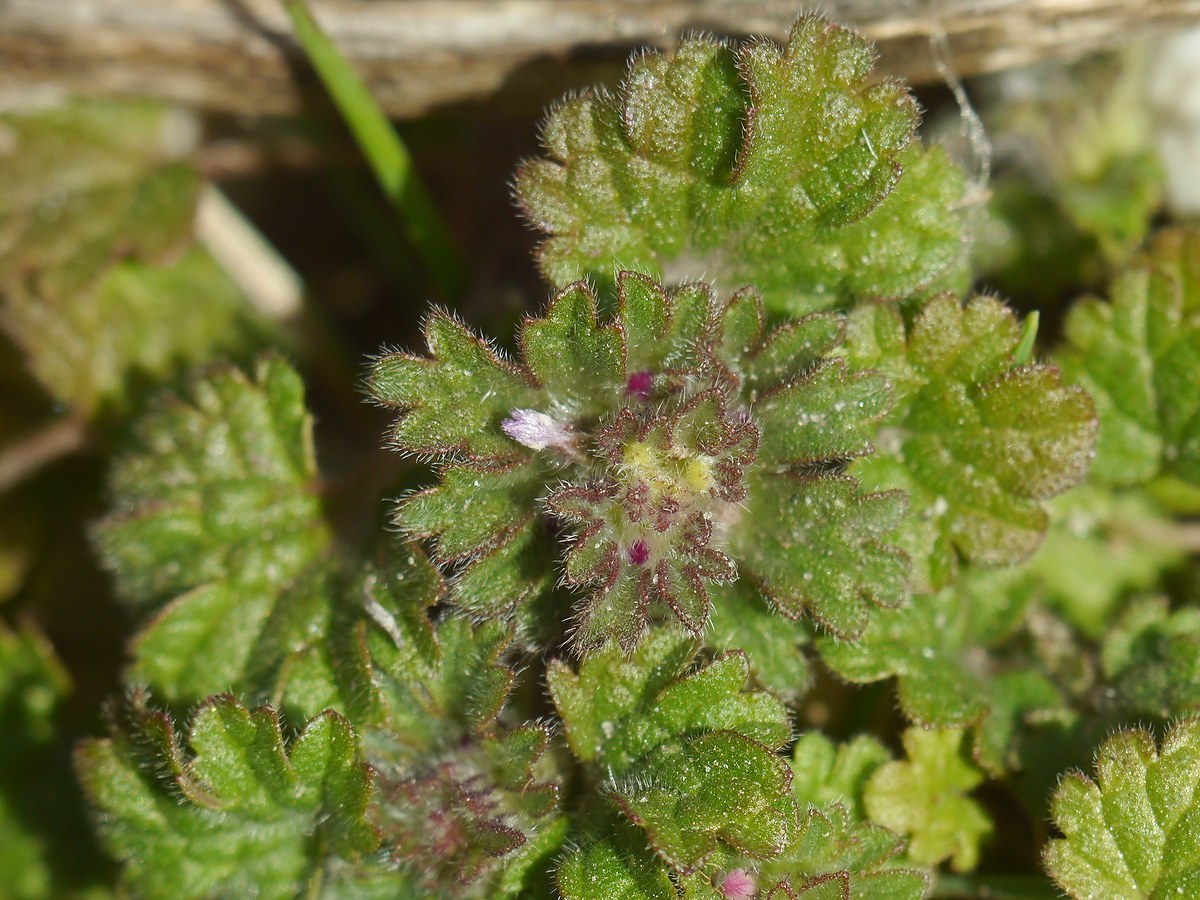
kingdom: Plantae
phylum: Tracheophyta
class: Magnoliopsida
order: Lamiales
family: Lamiaceae
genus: Lamium
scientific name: Lamium amplexicaule
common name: Henbit dead-nettle
